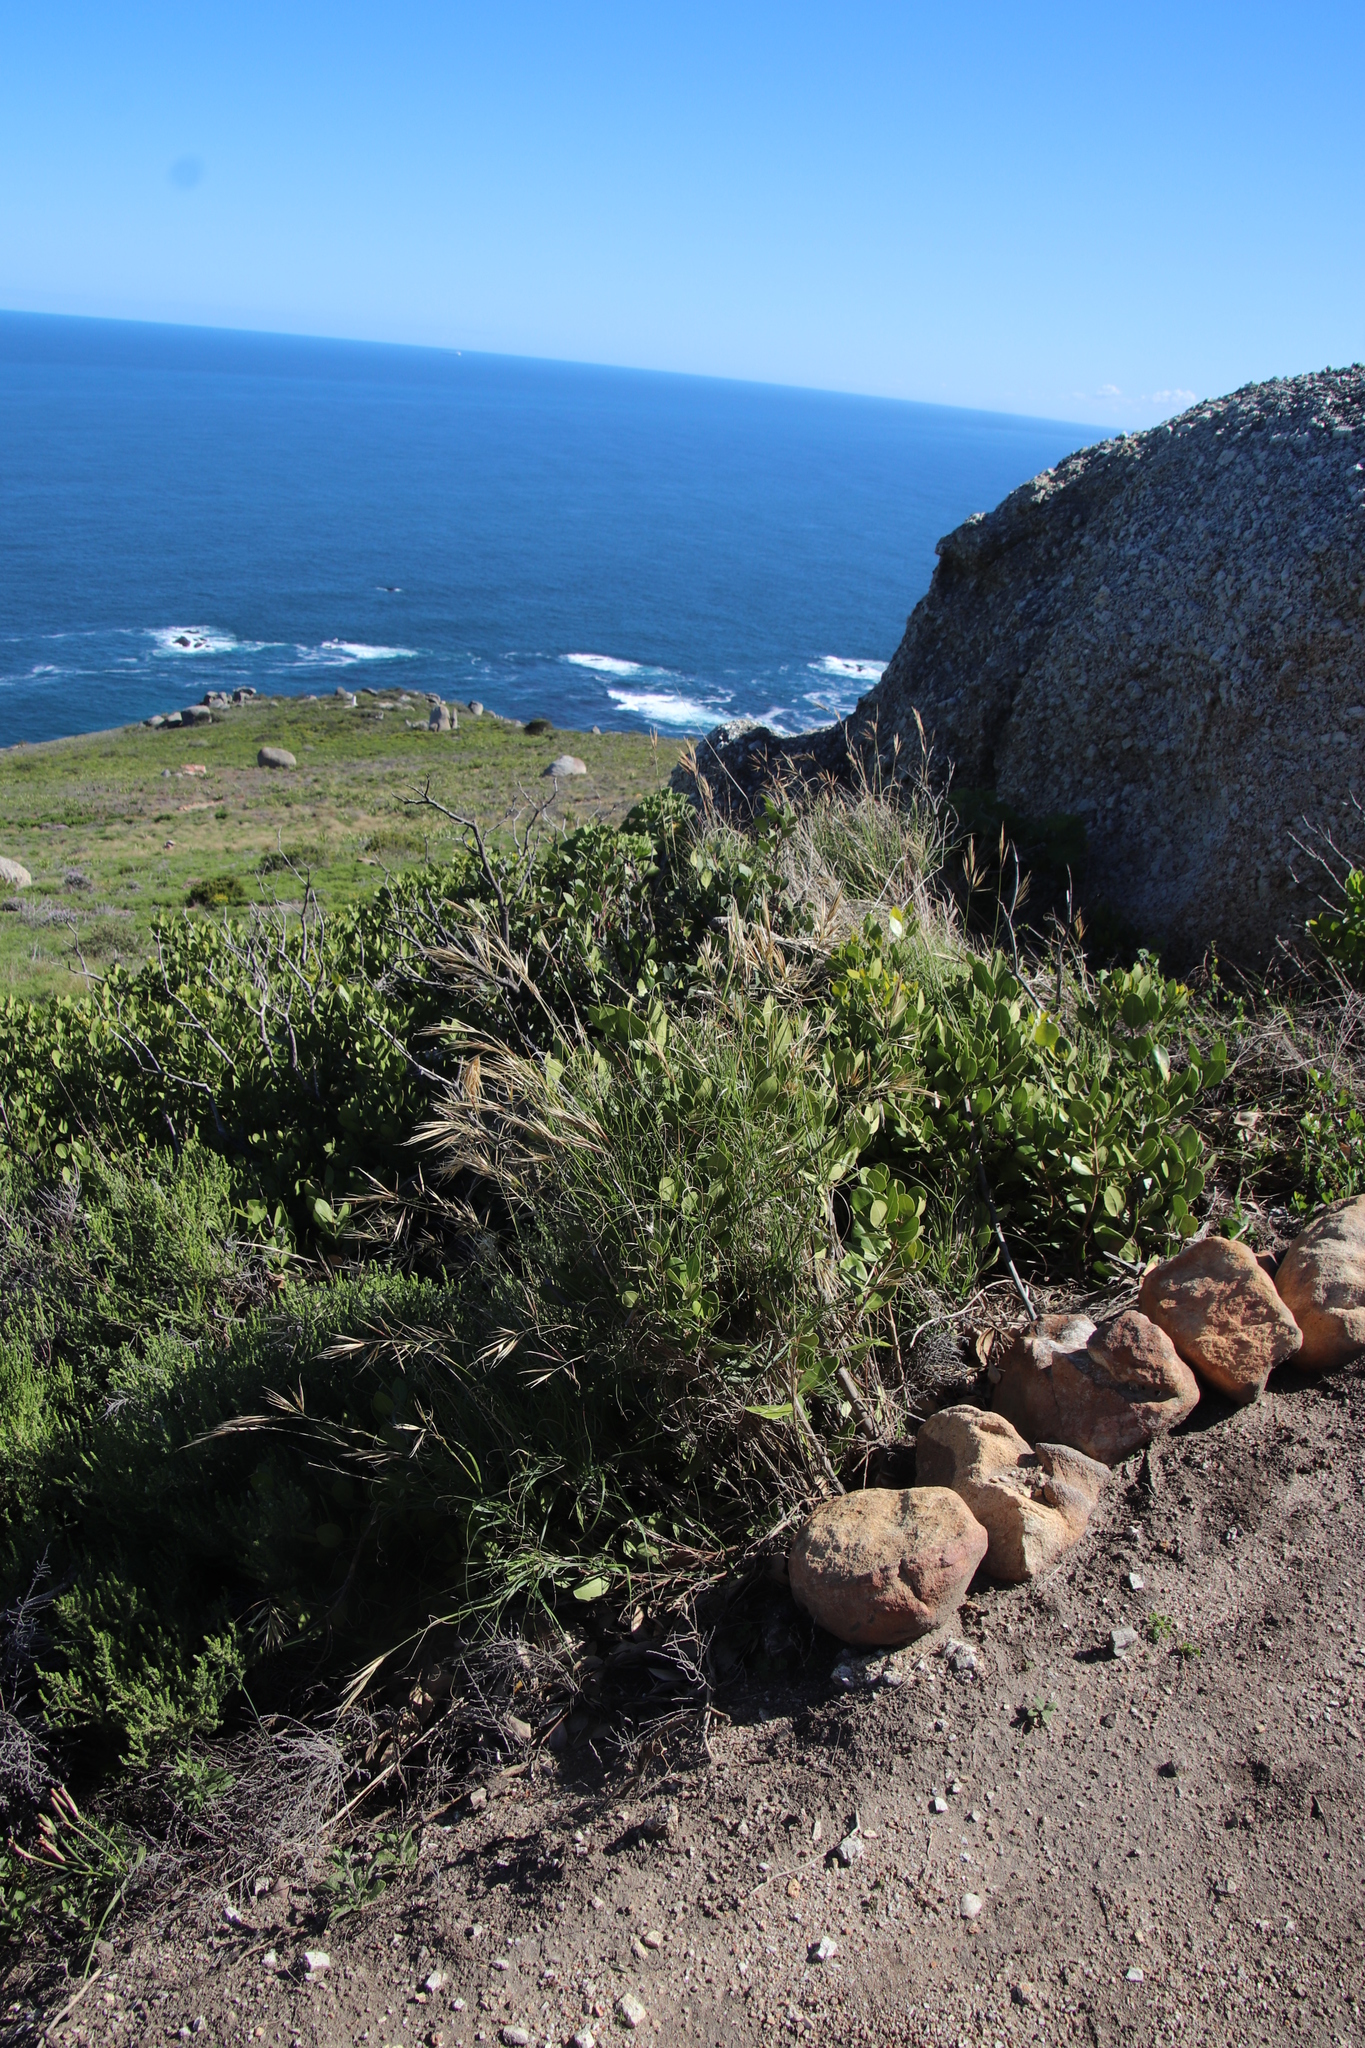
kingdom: Plantae
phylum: Tracheophyta
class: Liliopsida
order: Poales
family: Poaceae
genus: Pseudopentameris
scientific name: Pseudopentameris macrantha
